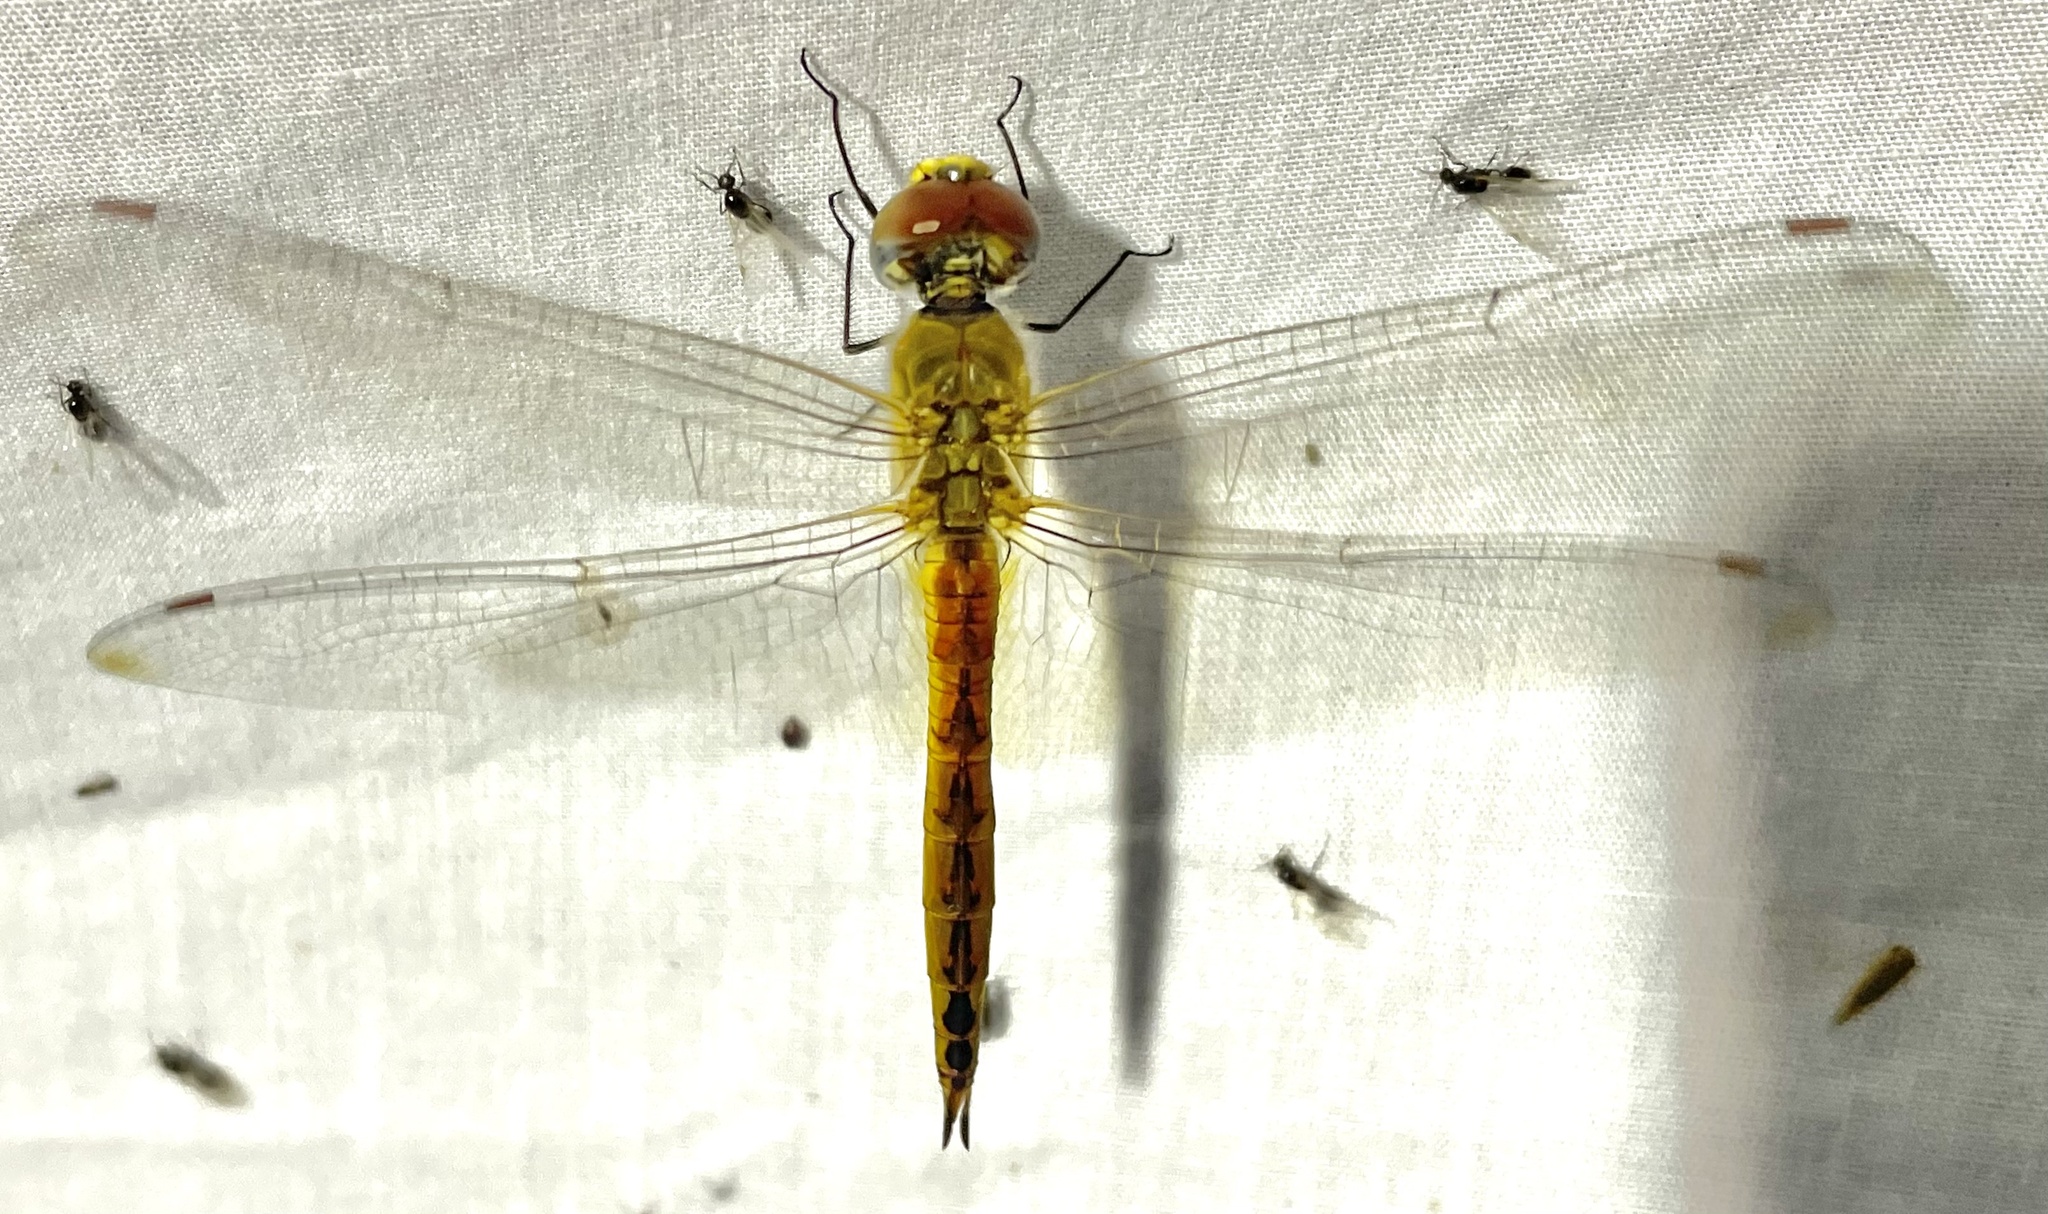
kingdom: Animalia
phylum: Arthropoda
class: Insecta
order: Odonata
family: Libellulidae
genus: Pantala
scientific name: Pantala flavescens
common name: Wandering glider
